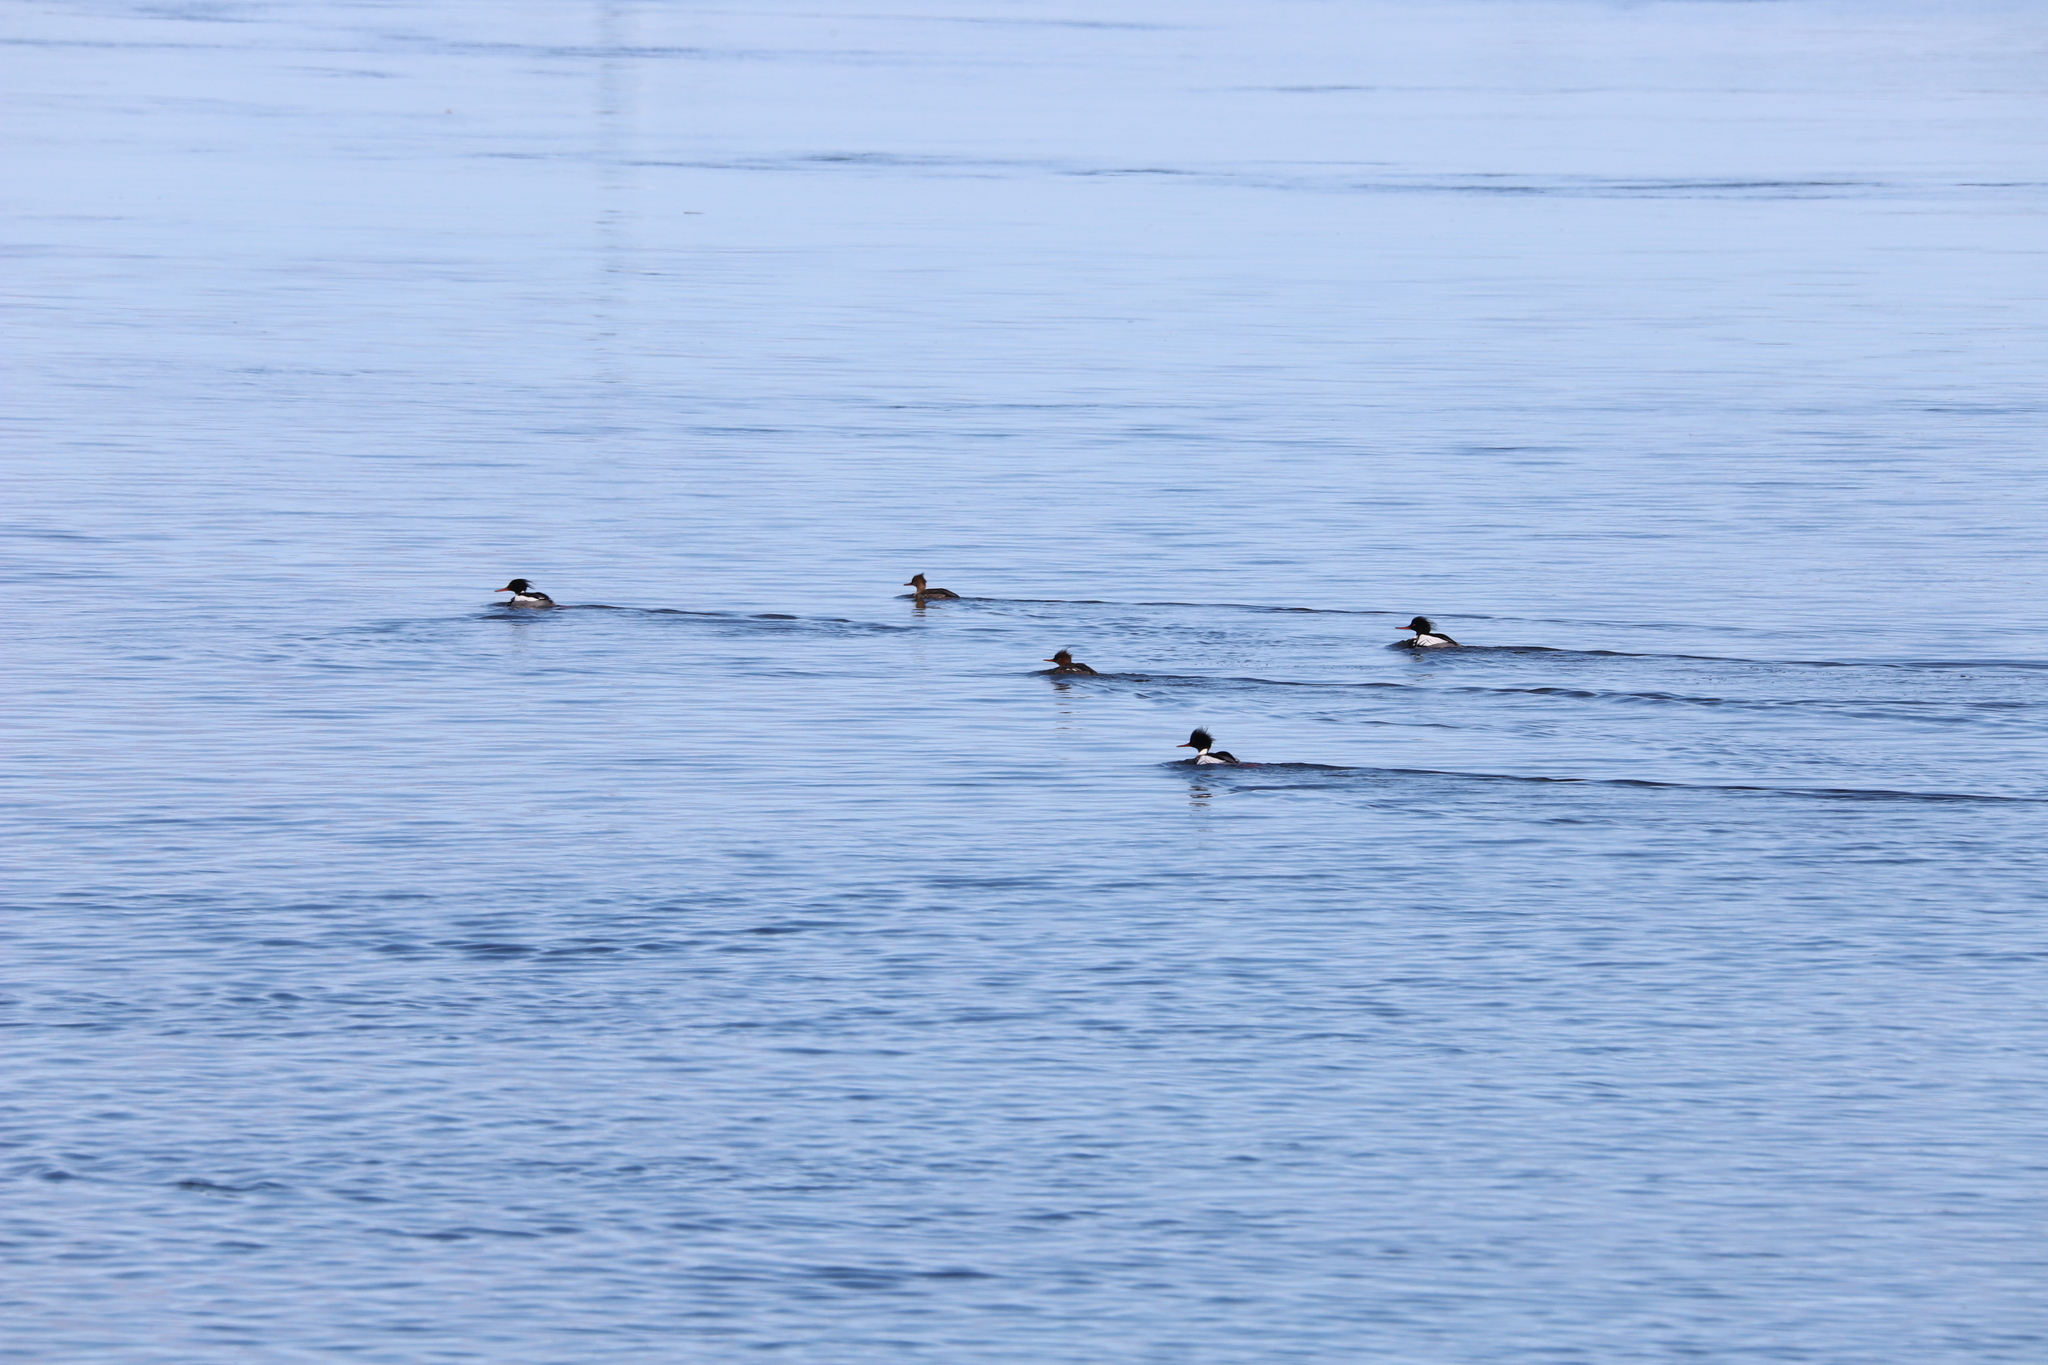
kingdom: Animalia
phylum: Chordata
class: Aves
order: Anseriformes
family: Anatidae
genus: Mergus
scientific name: Mergus serrator
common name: Red-breasted merganser
